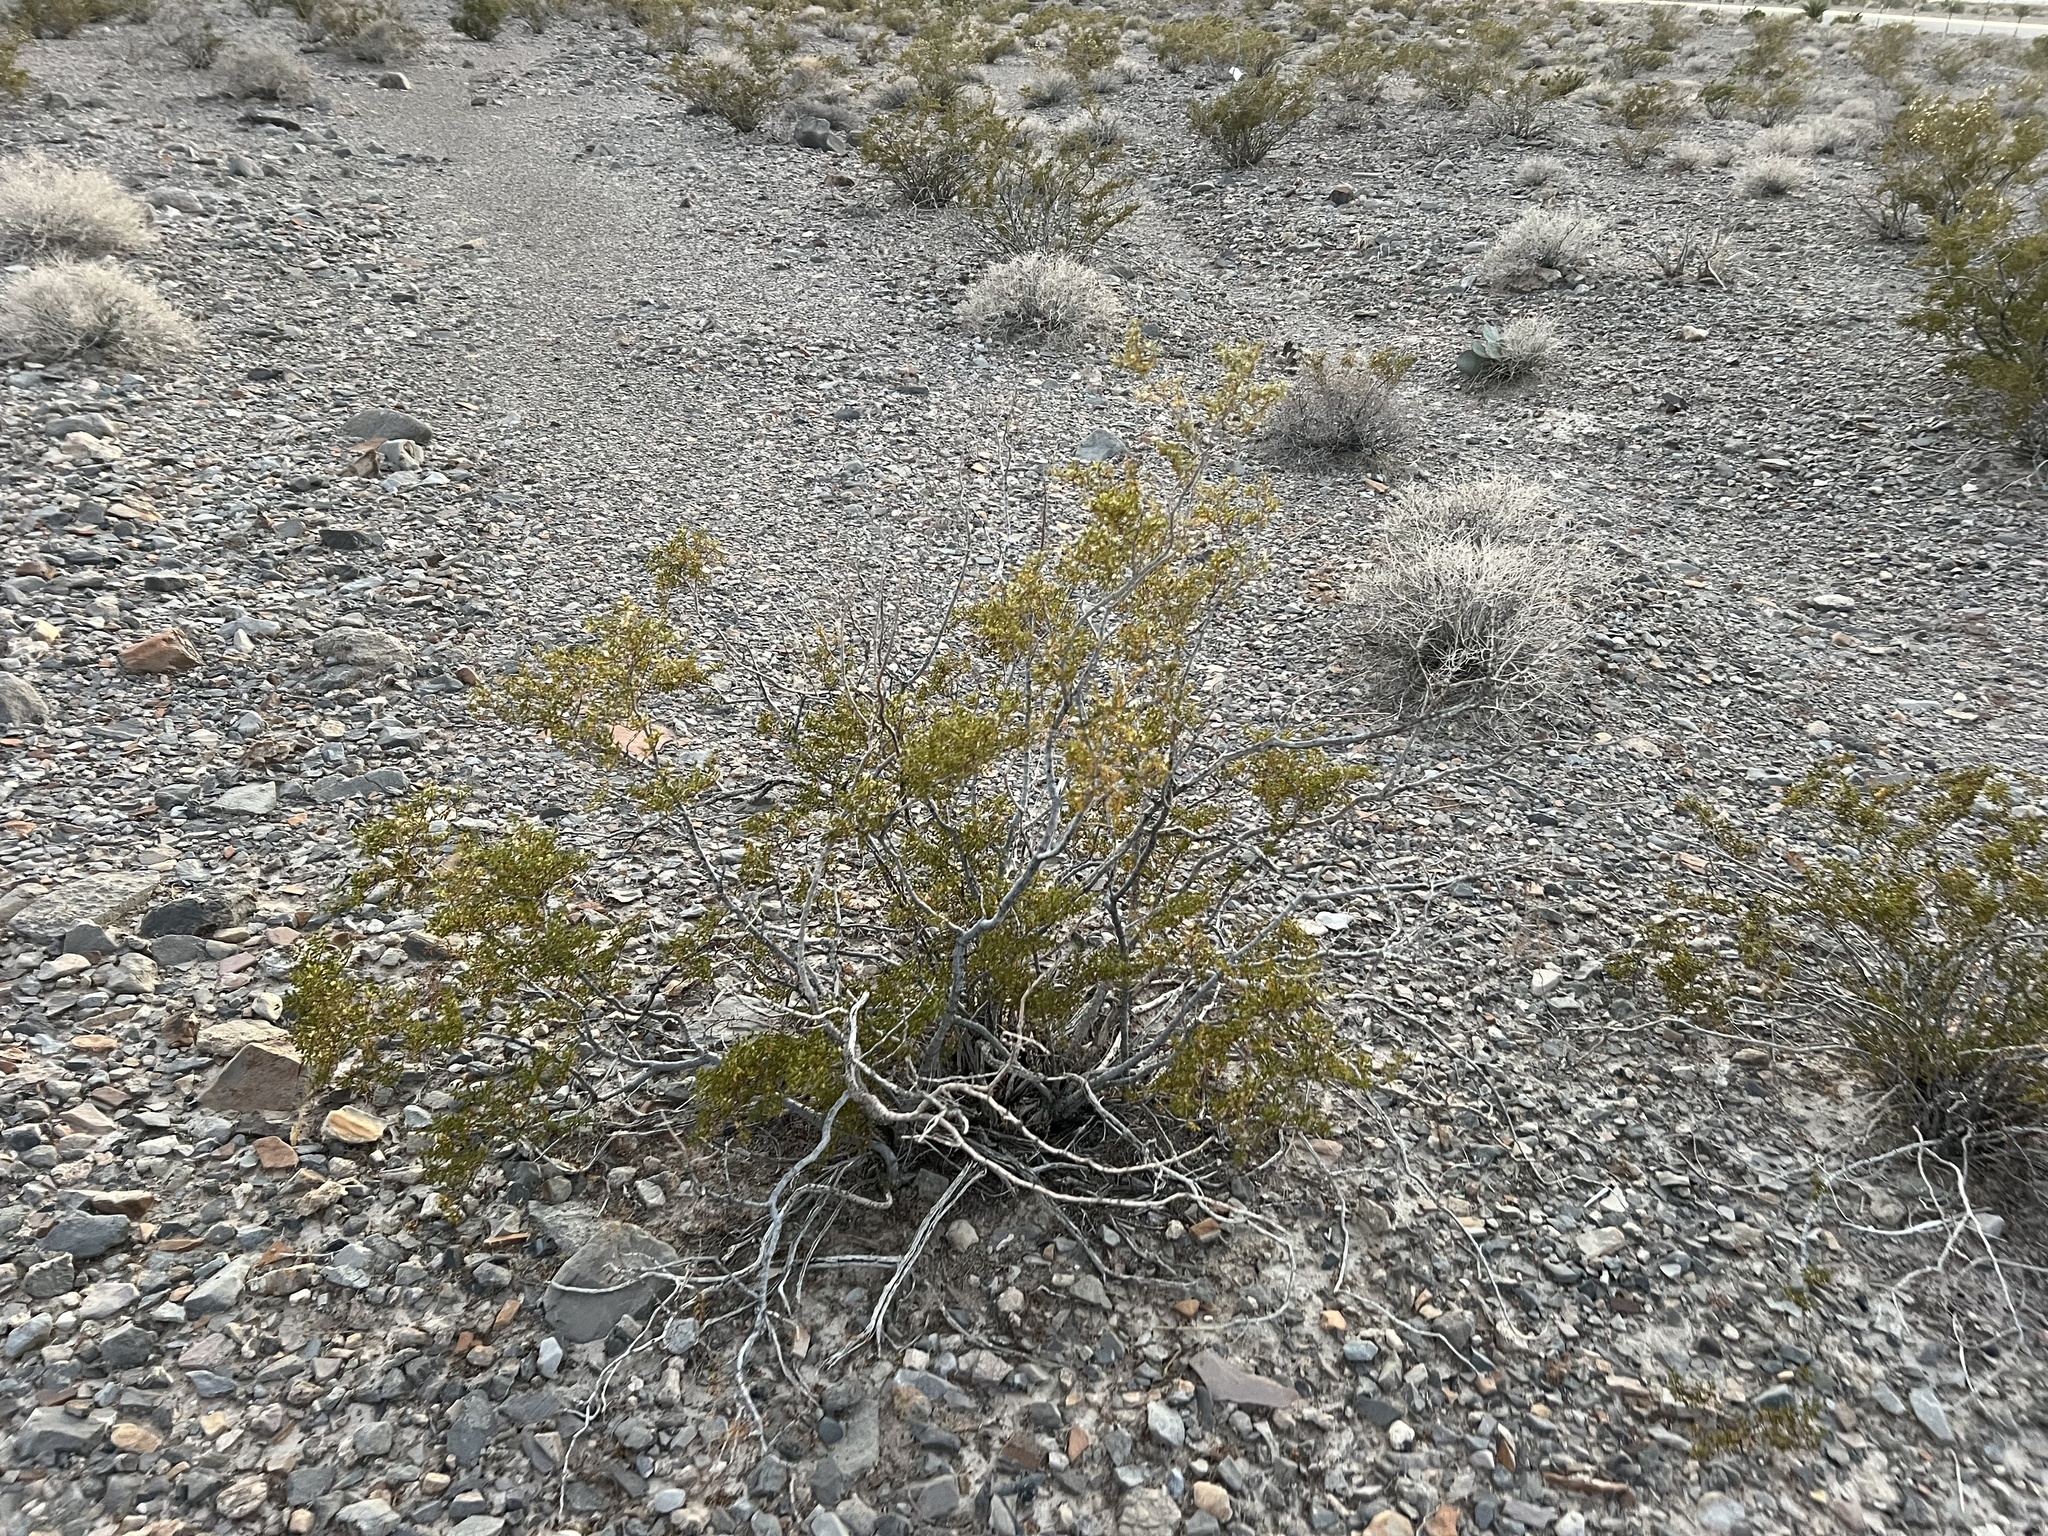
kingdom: Plantae
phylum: Tracheophyta
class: Magnoliopsida
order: Zygophyllales
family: Zygophyllaceae
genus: Larrea
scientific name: Larrea tridentata
